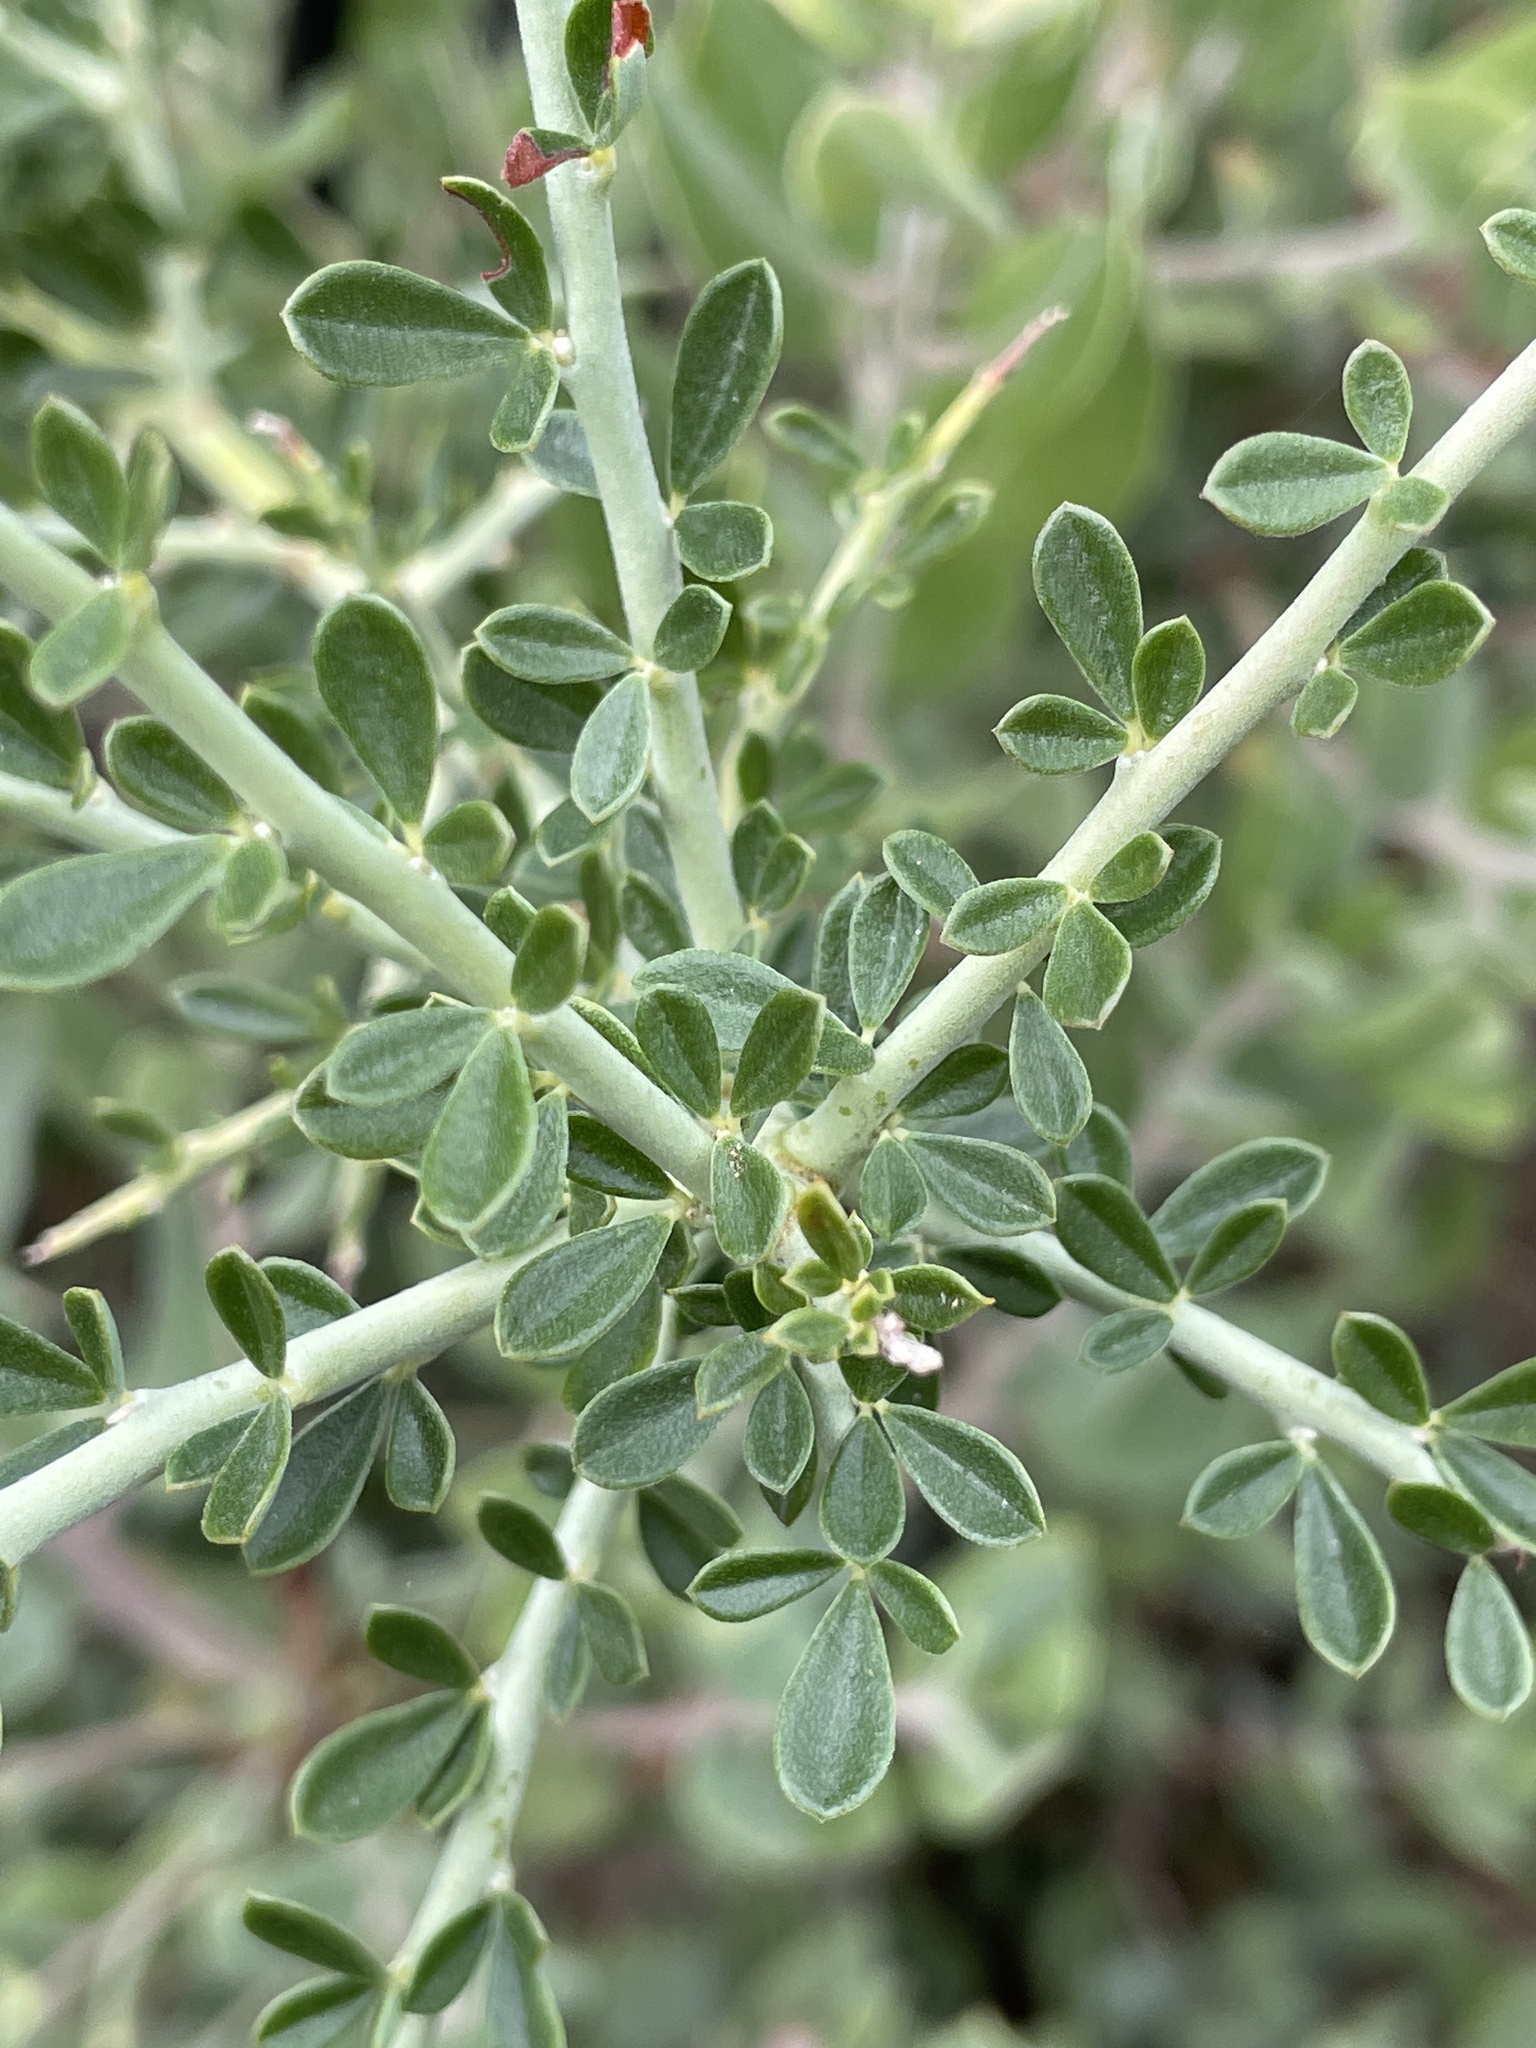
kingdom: Plantae
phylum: Tracheophyta
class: Magnoliopsida
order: Fabales
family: Fabaceae
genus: Pickeringia
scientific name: Pickeringia montana
